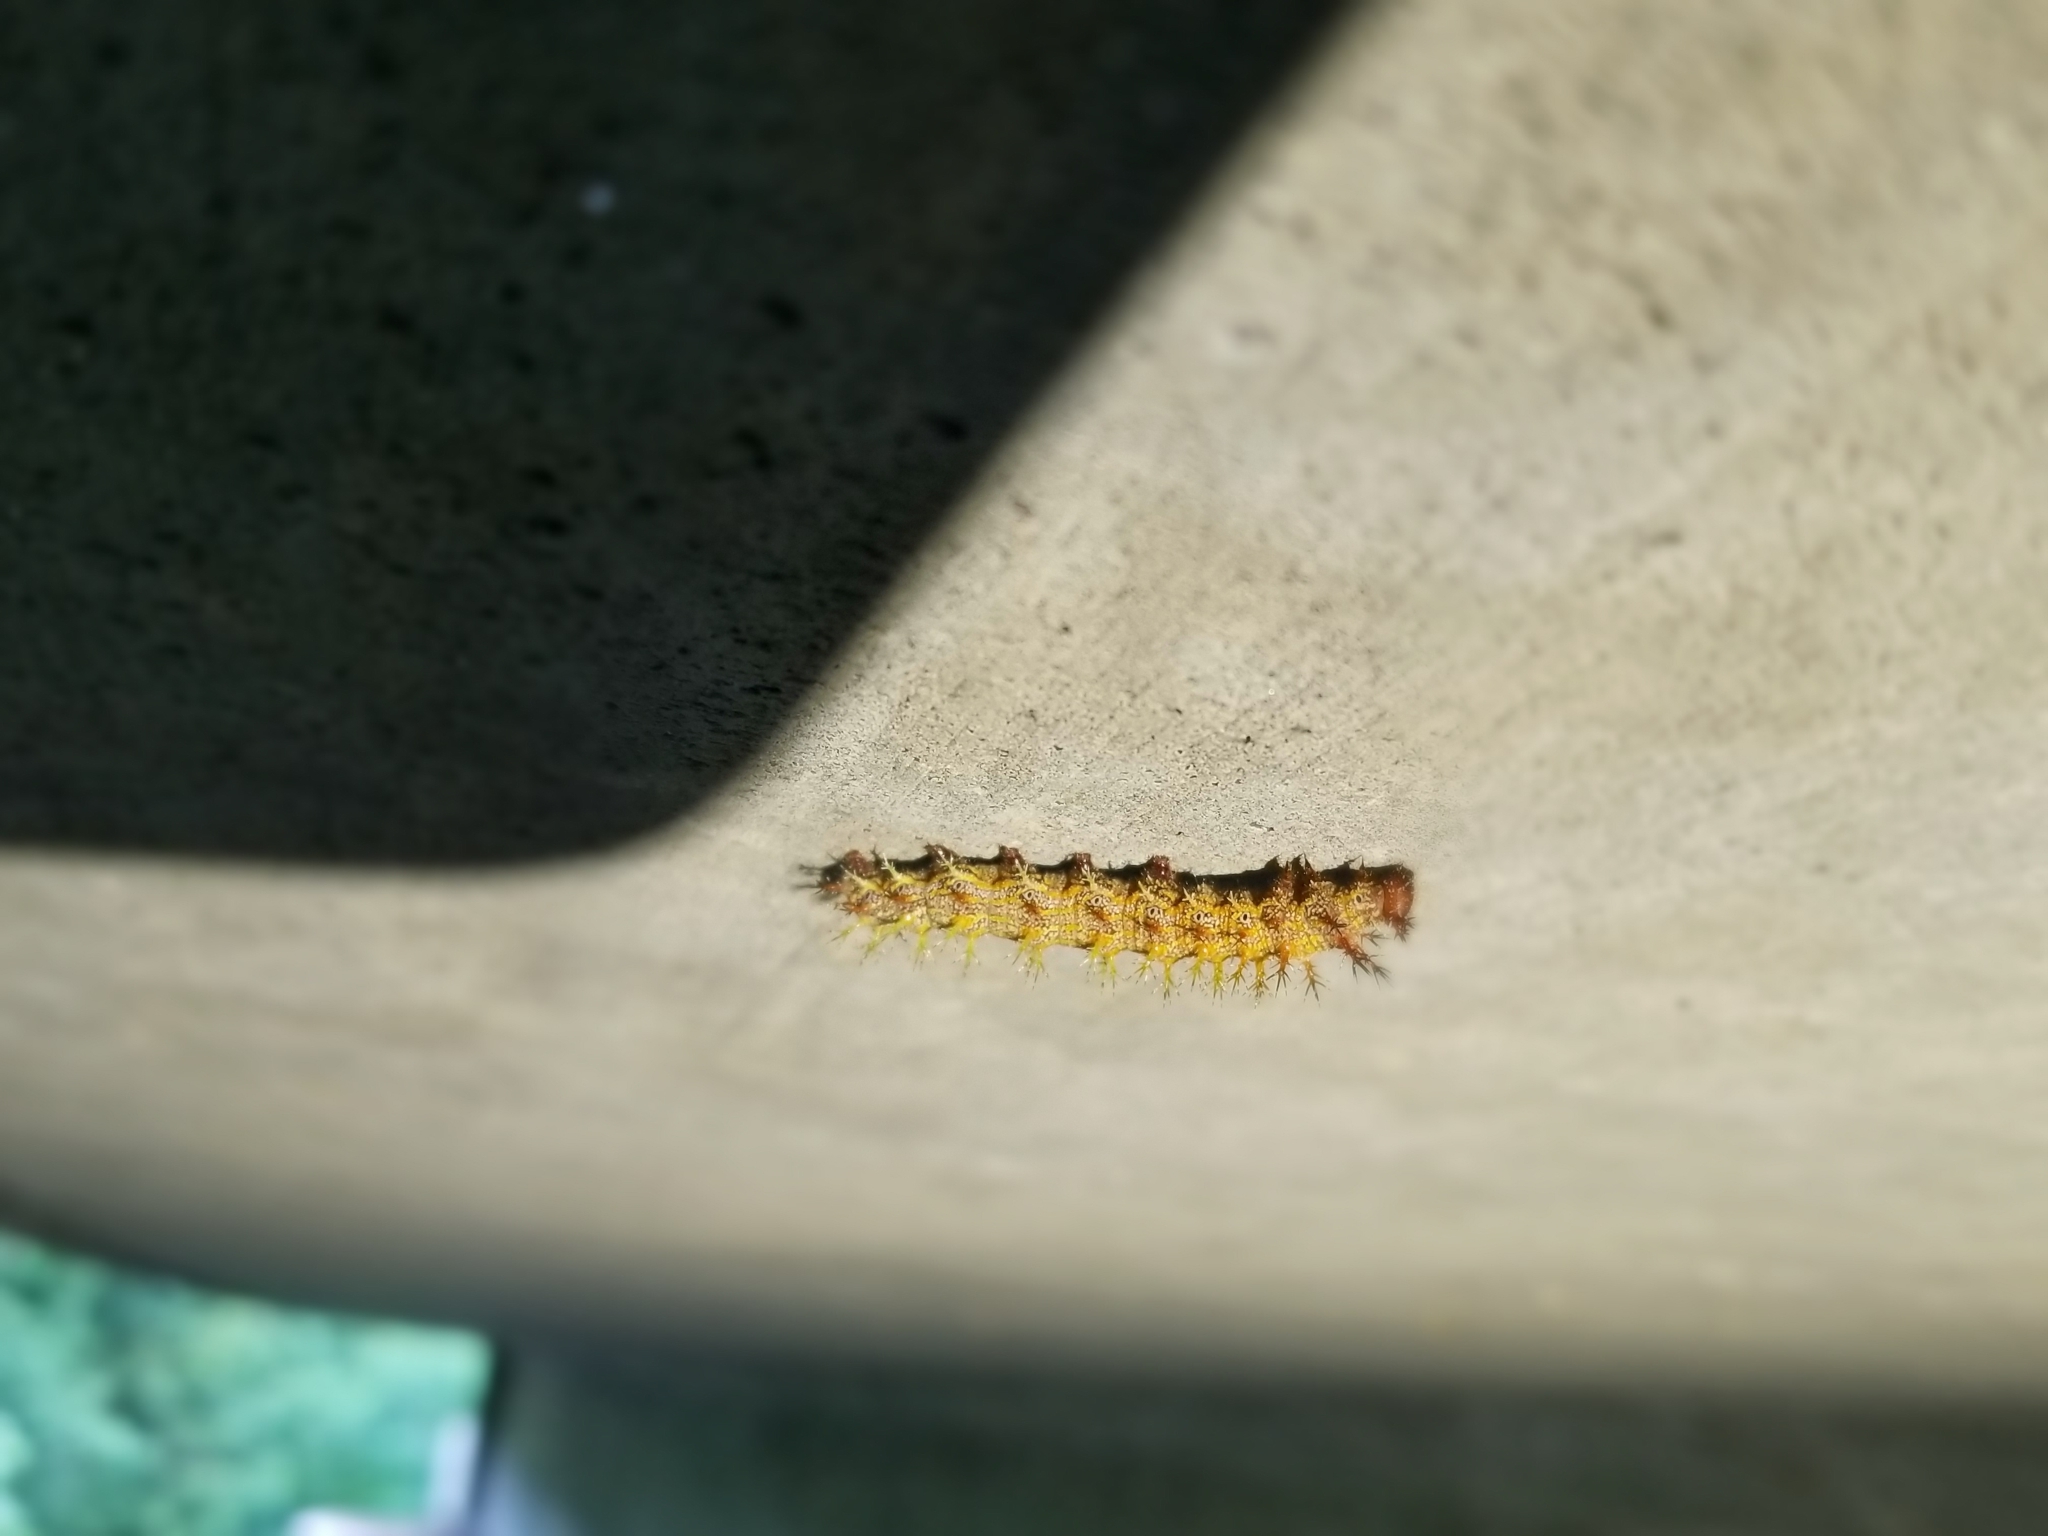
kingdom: Animalia
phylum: Arthropoda
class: Insecta
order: Lepidoptera
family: Nymphalidae
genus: Polygonia
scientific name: Polygonia interrogationis
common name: Question mark
